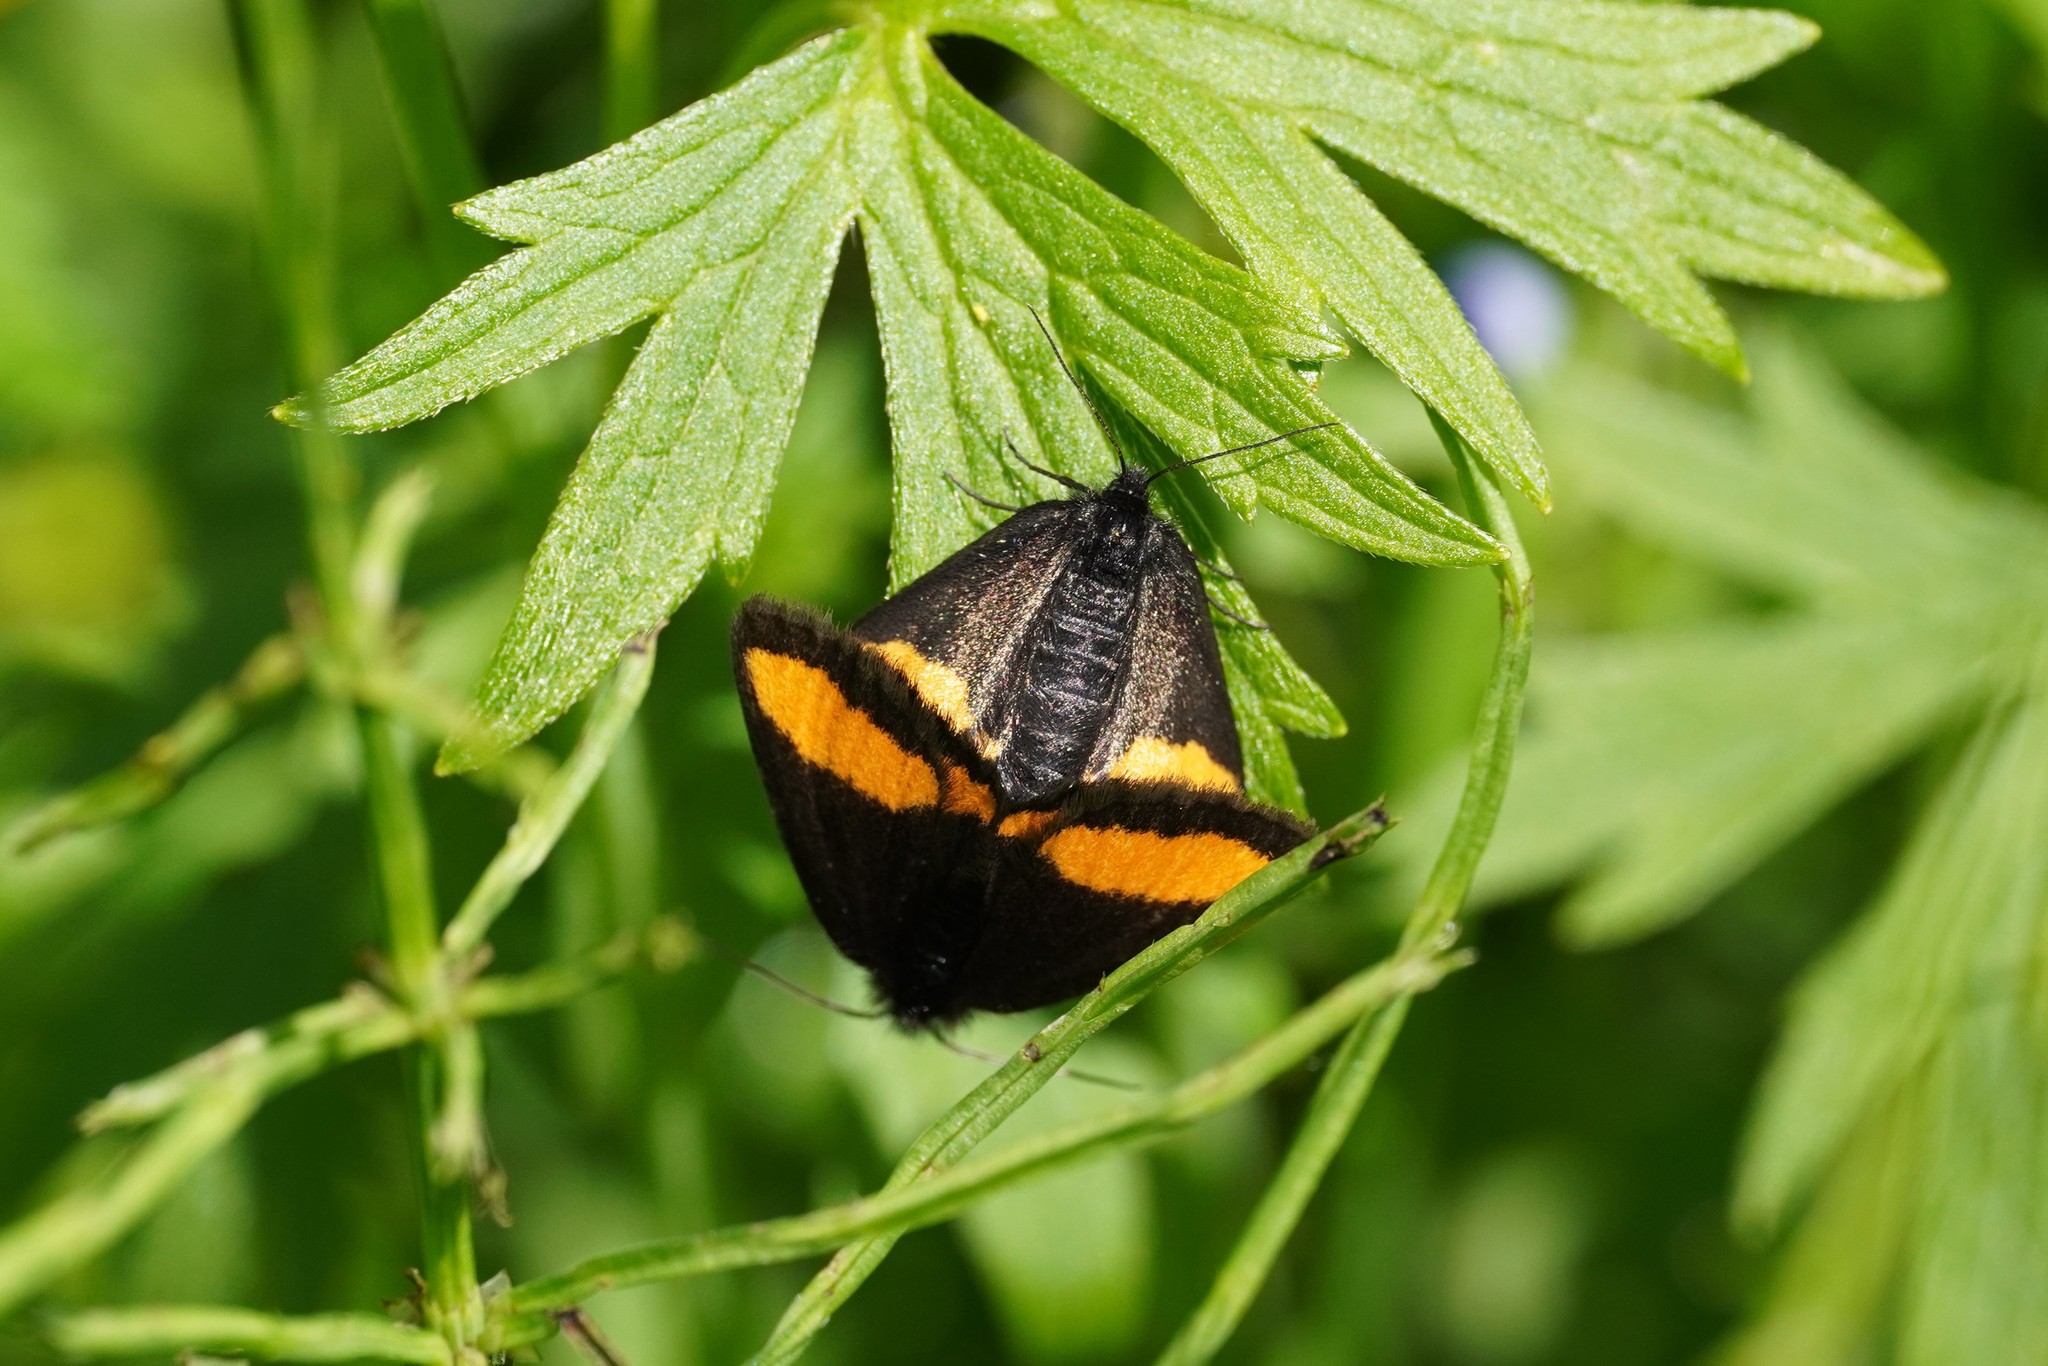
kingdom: Animalia
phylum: Arthropoda
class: Insecta
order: Lepidoptera
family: Geometridae
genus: Psodos
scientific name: Psodos quadrifaria
